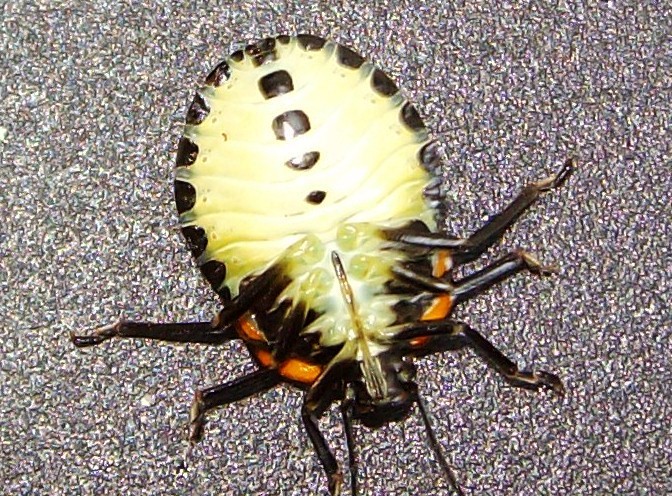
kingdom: Animalia
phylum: Arthropoda
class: Insecta
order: Hemiptera
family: Pentatomidae
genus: Chinavia
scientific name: Chinavia hilaris
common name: Green stink bug
